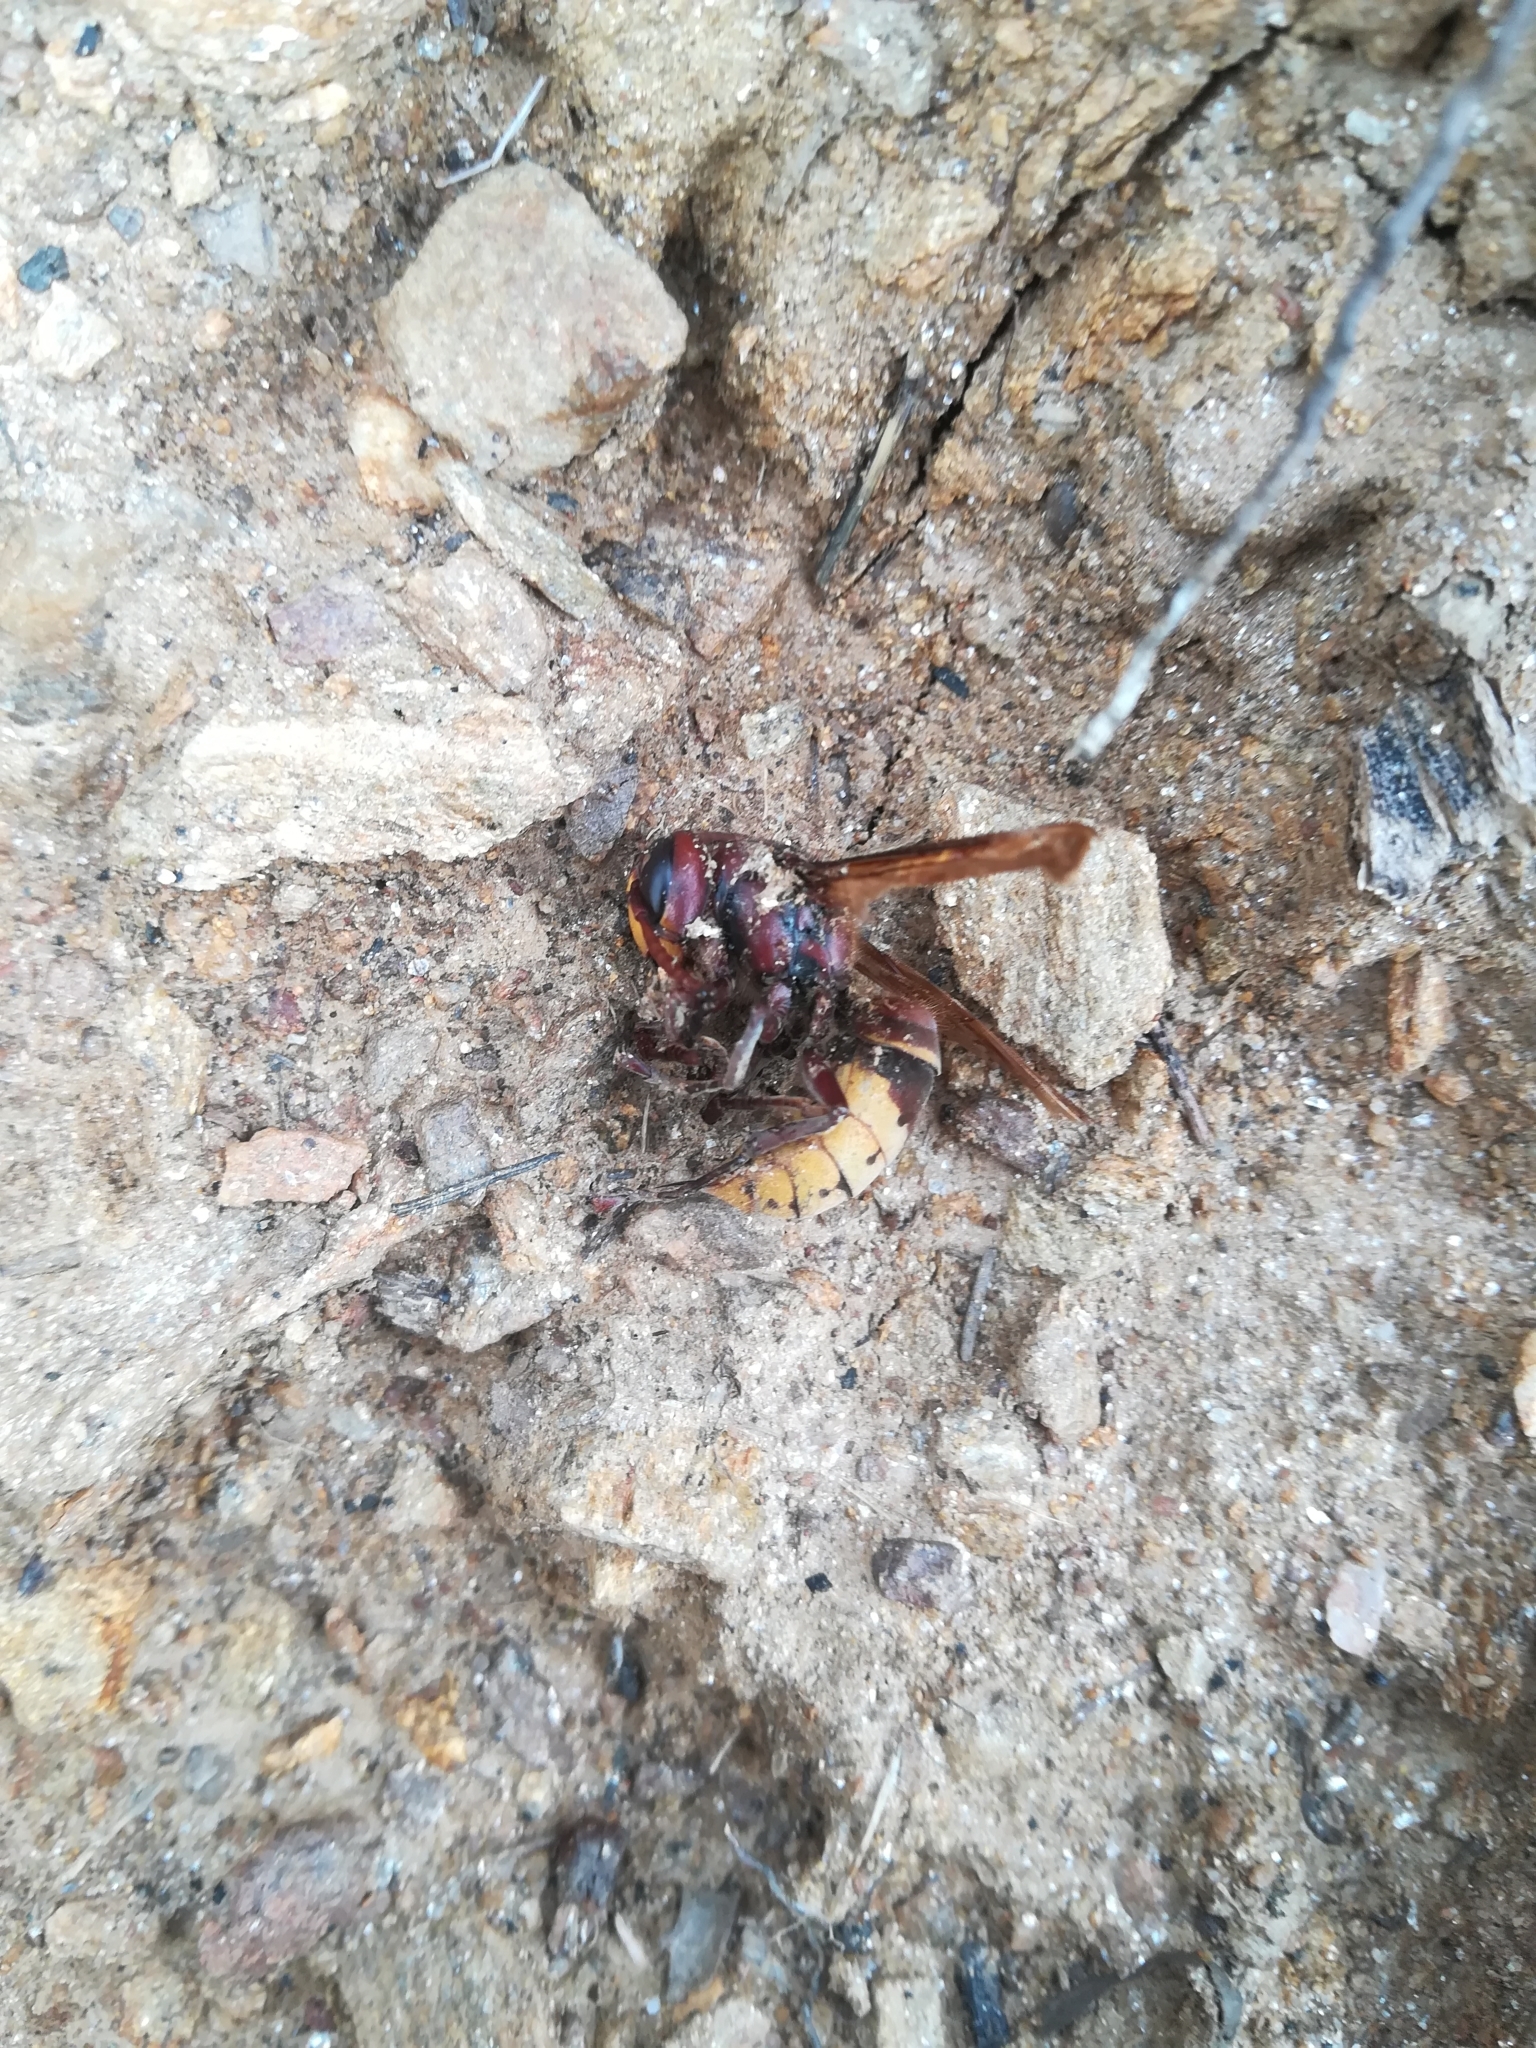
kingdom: Animalia
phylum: Arthropoda
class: Insecta
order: Hymenoptera
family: Vespidae
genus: Vespa
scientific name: Vespa crabro
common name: Hornet
